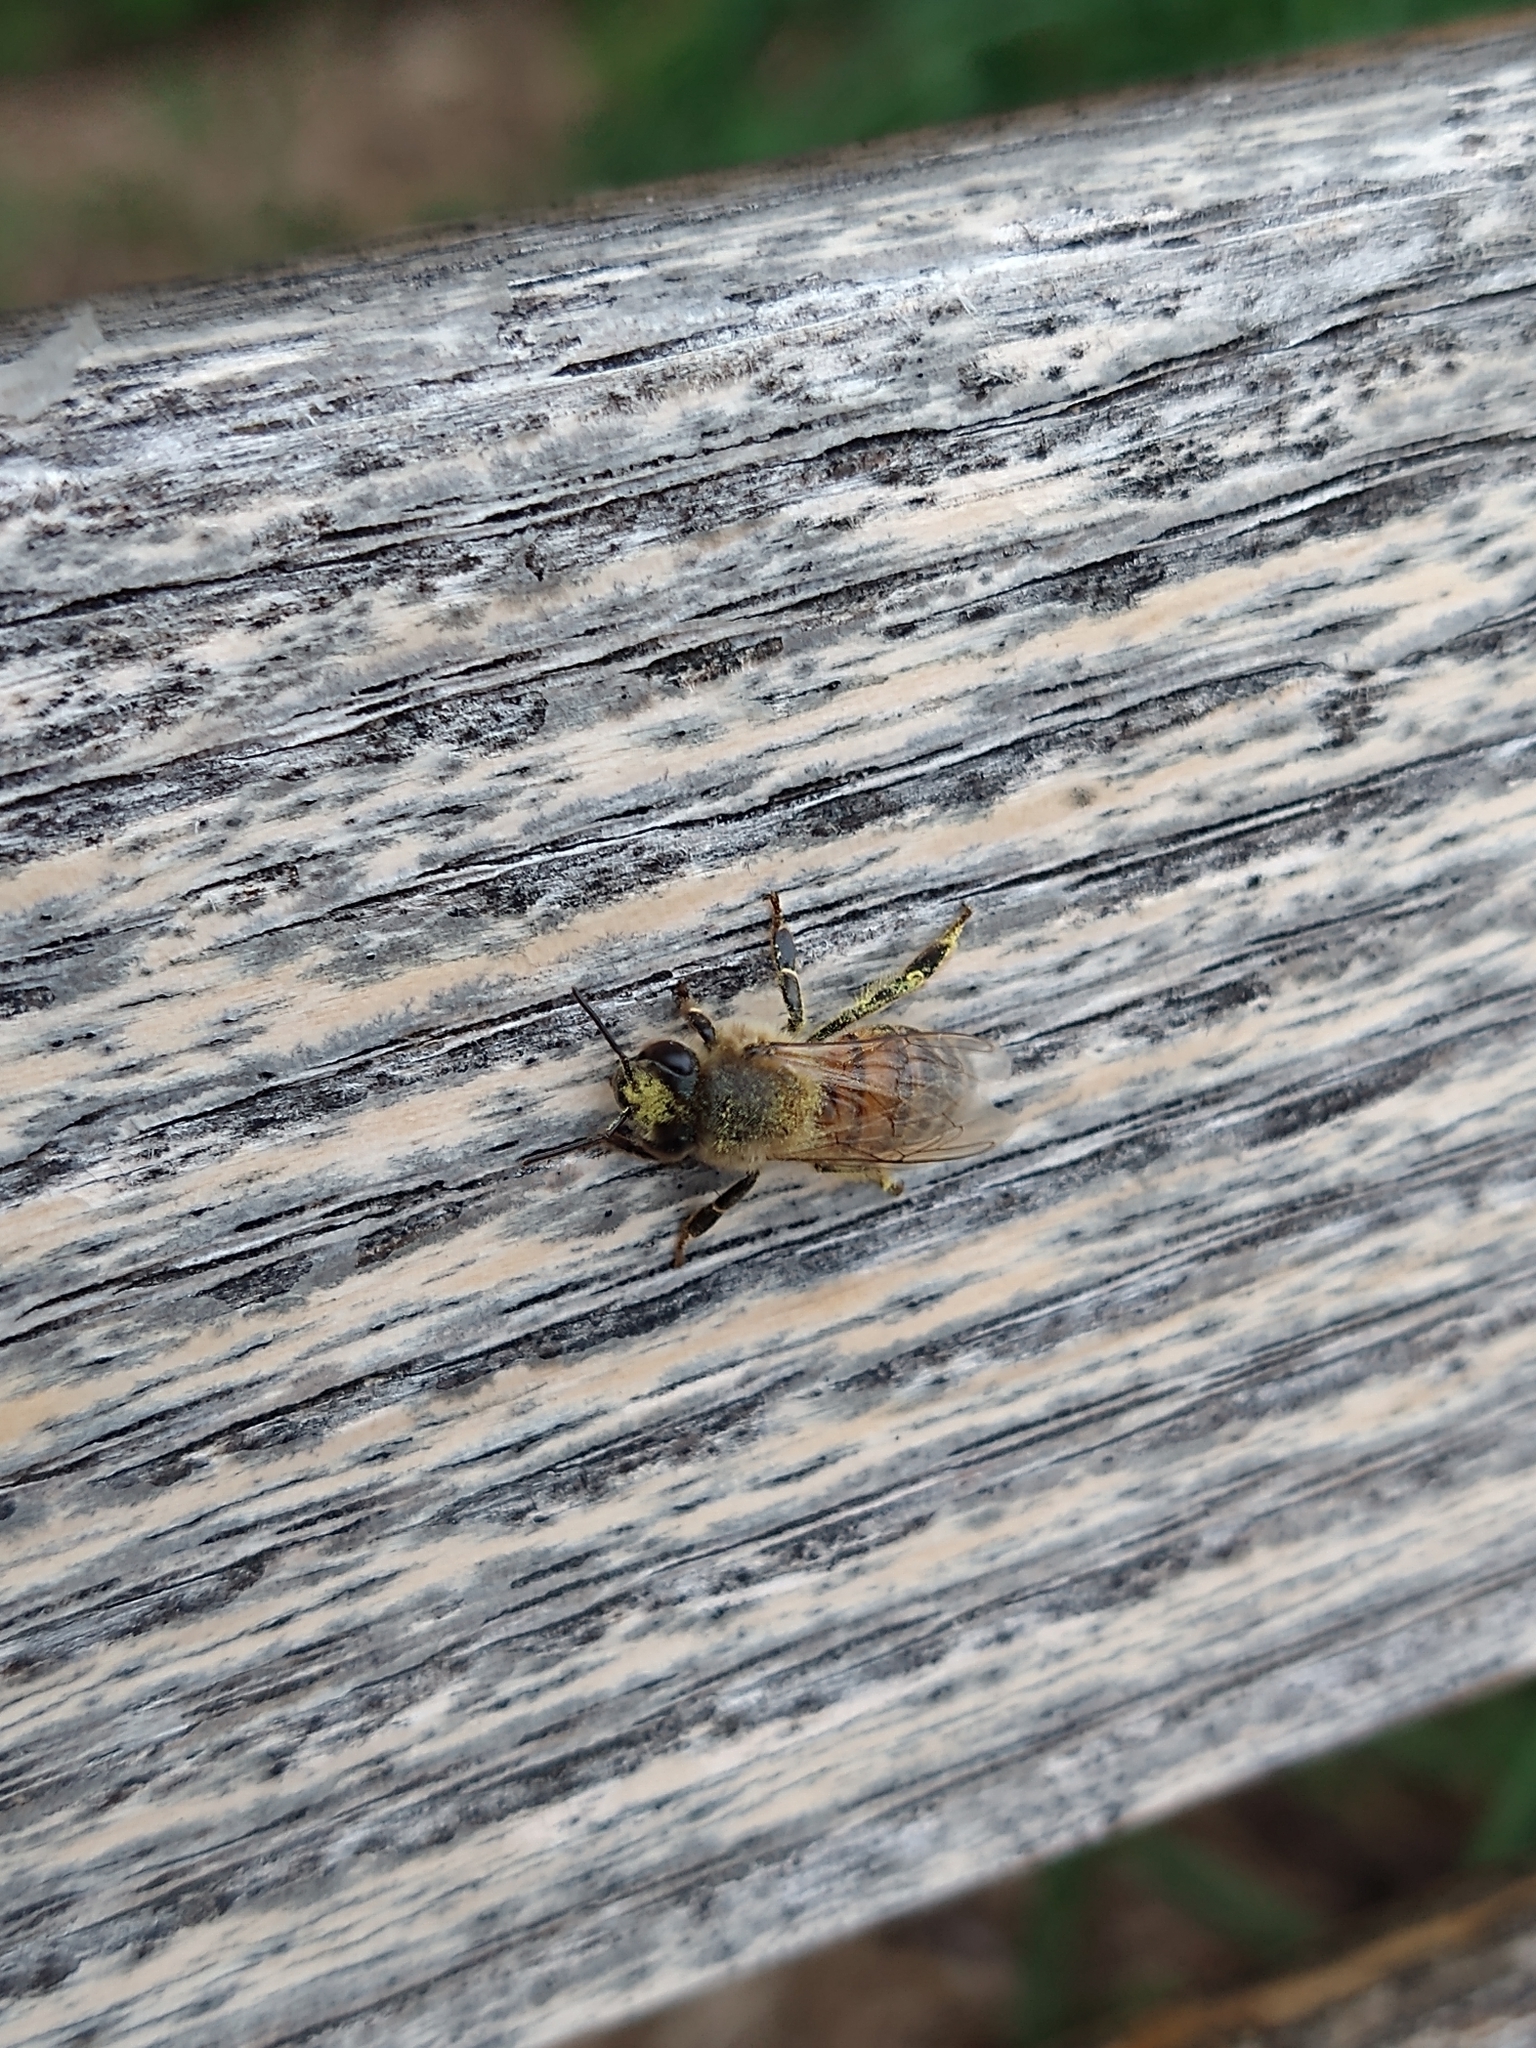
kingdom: Animalia
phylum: Arthropoda
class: Insecta
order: Hymenoptera
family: Apidae
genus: Apis
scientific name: Apis mellifera
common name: Honey bee
